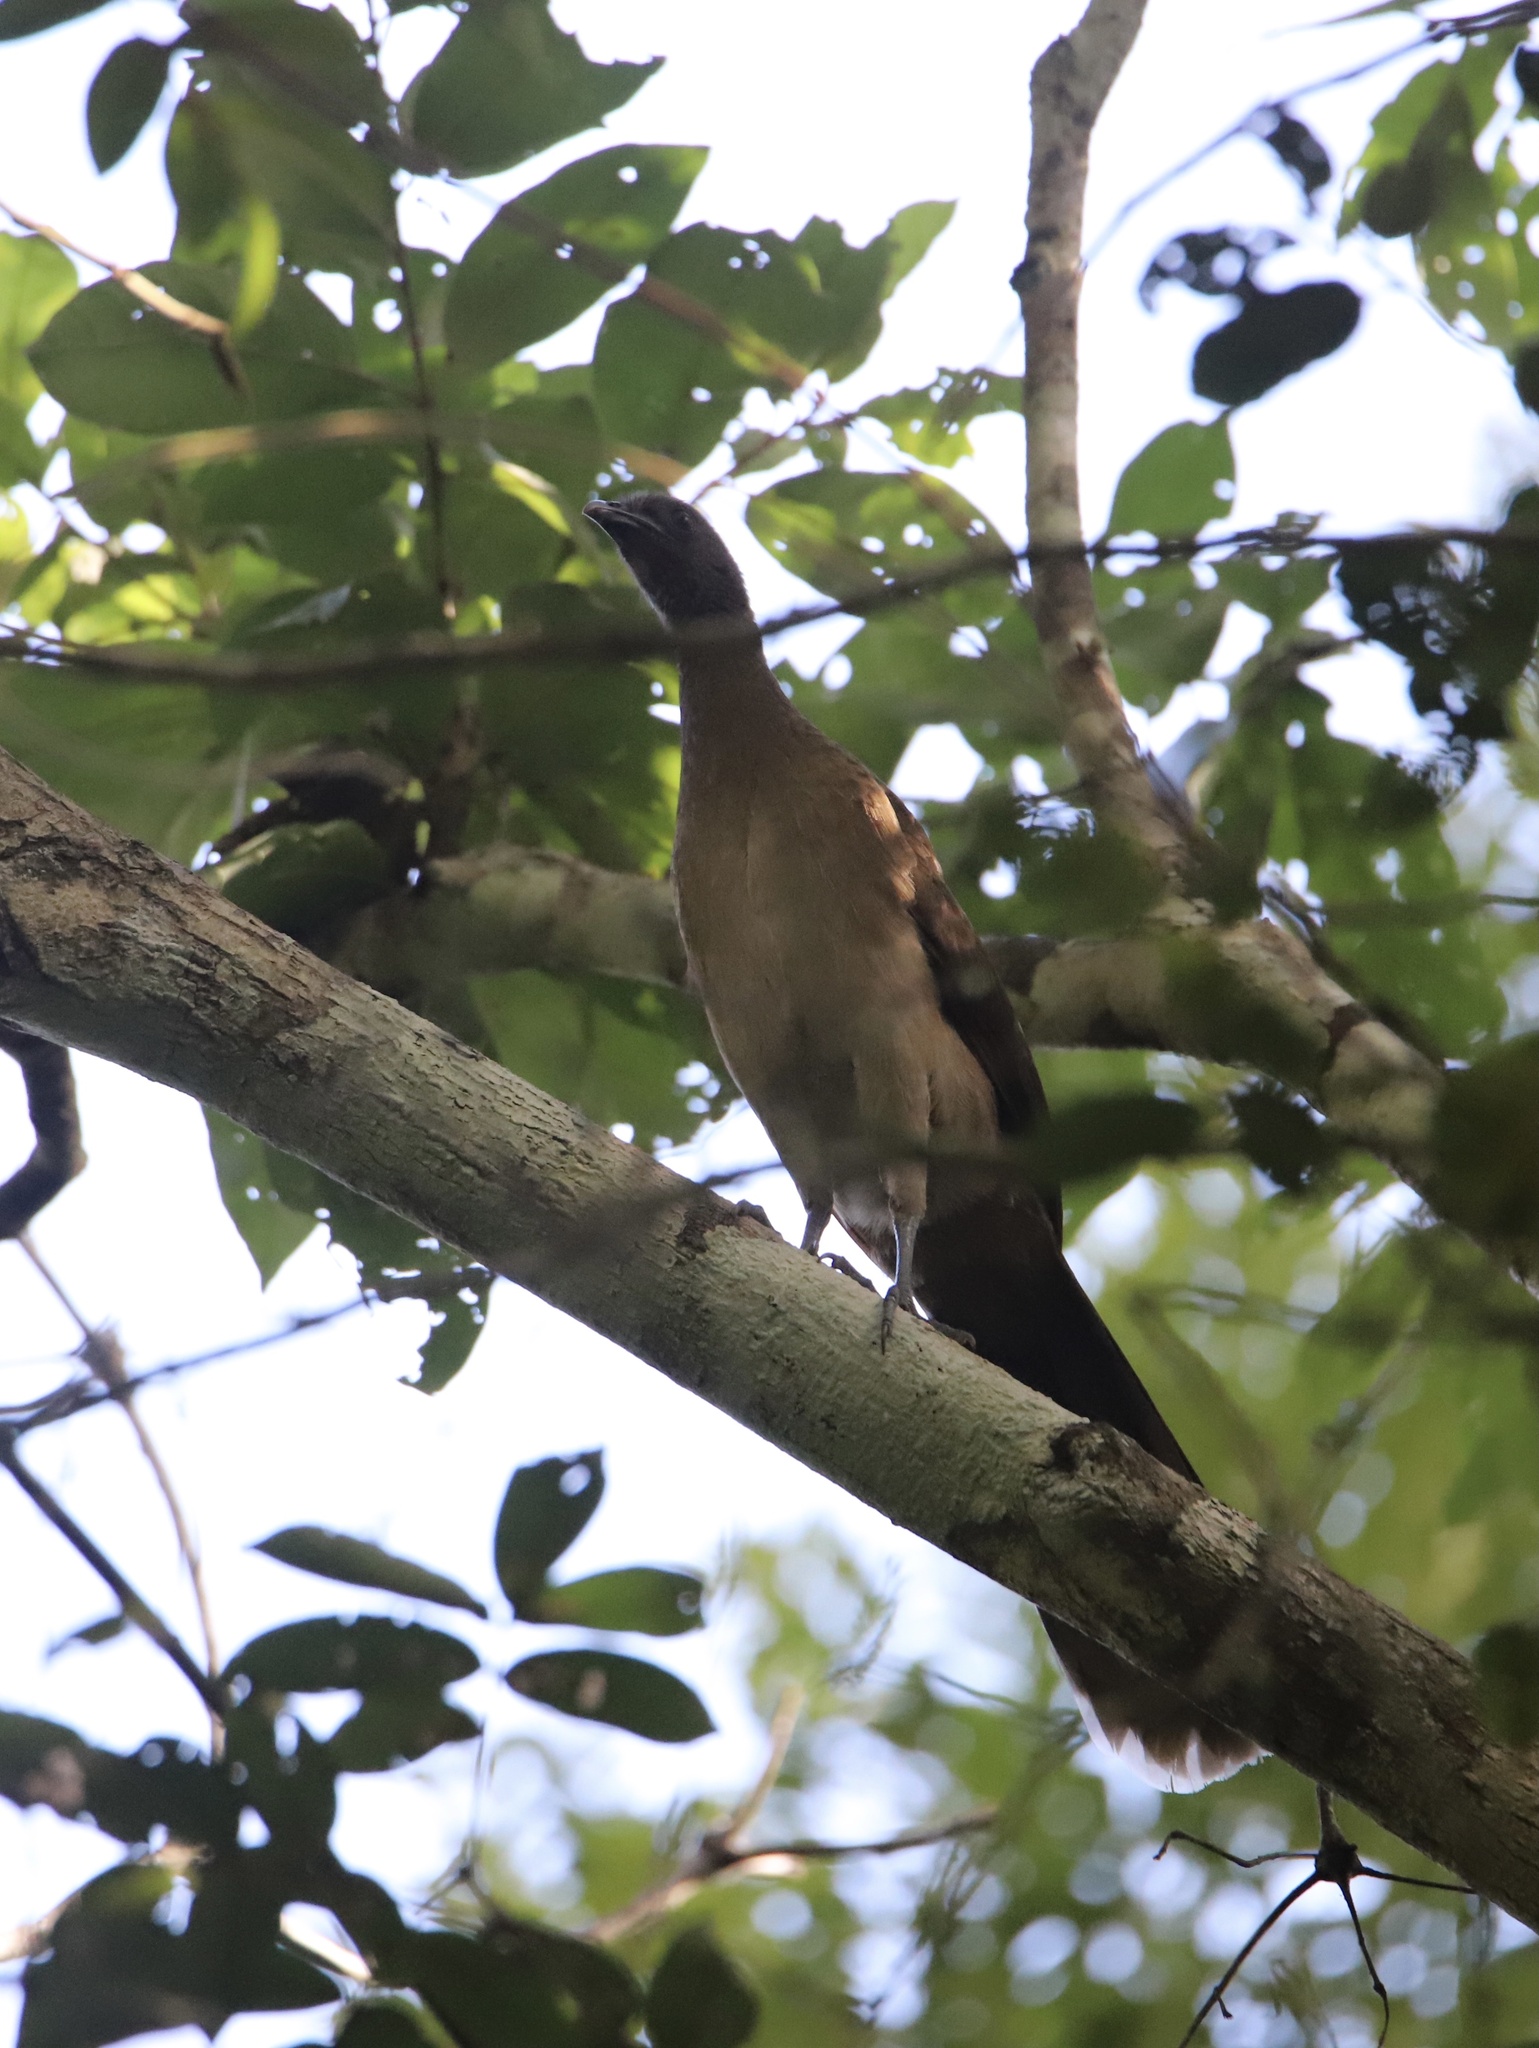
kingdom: Animalia
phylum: Chordata
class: Aves
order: Galliformes
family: Cracidae
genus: Ortalis
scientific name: Ortalis cinereiceps
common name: Grey-headed chachalaca
